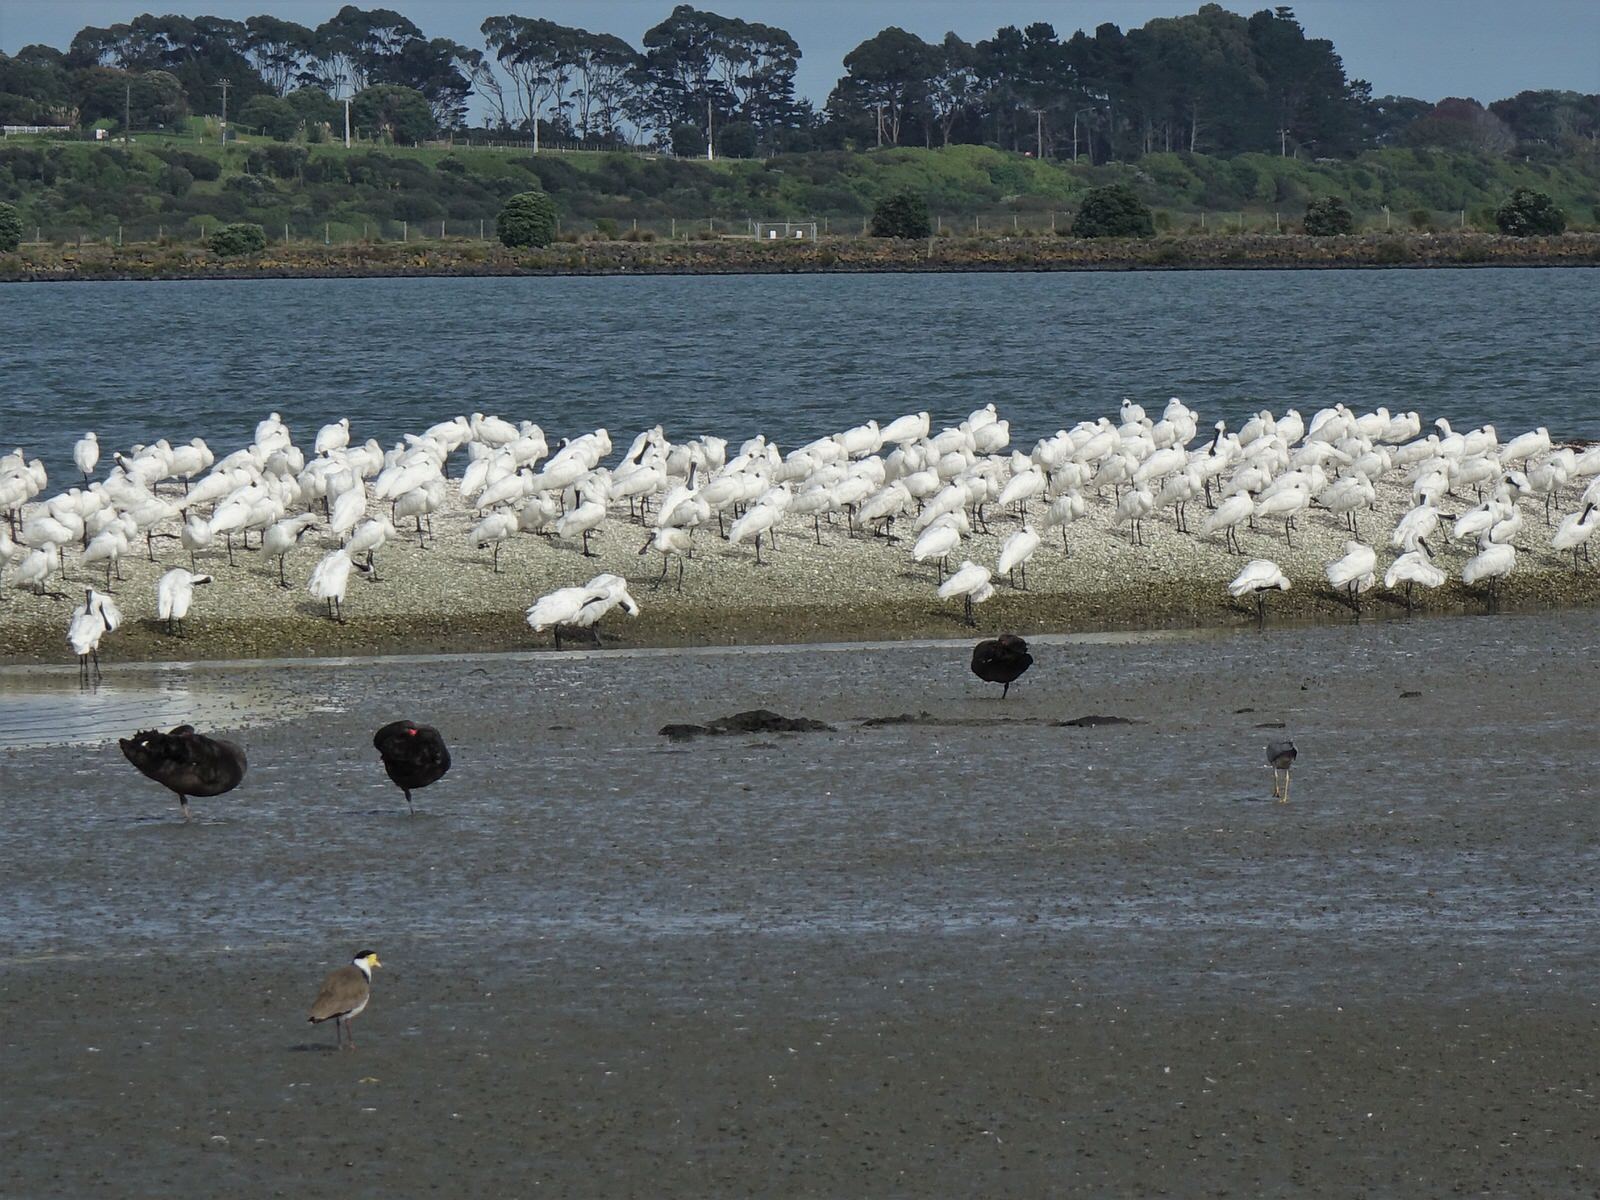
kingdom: Animalia
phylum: Chordata
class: Aves
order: Pelecaniformes
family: Threskiornithidae
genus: Platalea
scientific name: Platalea regia
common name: Royal spoonbill
